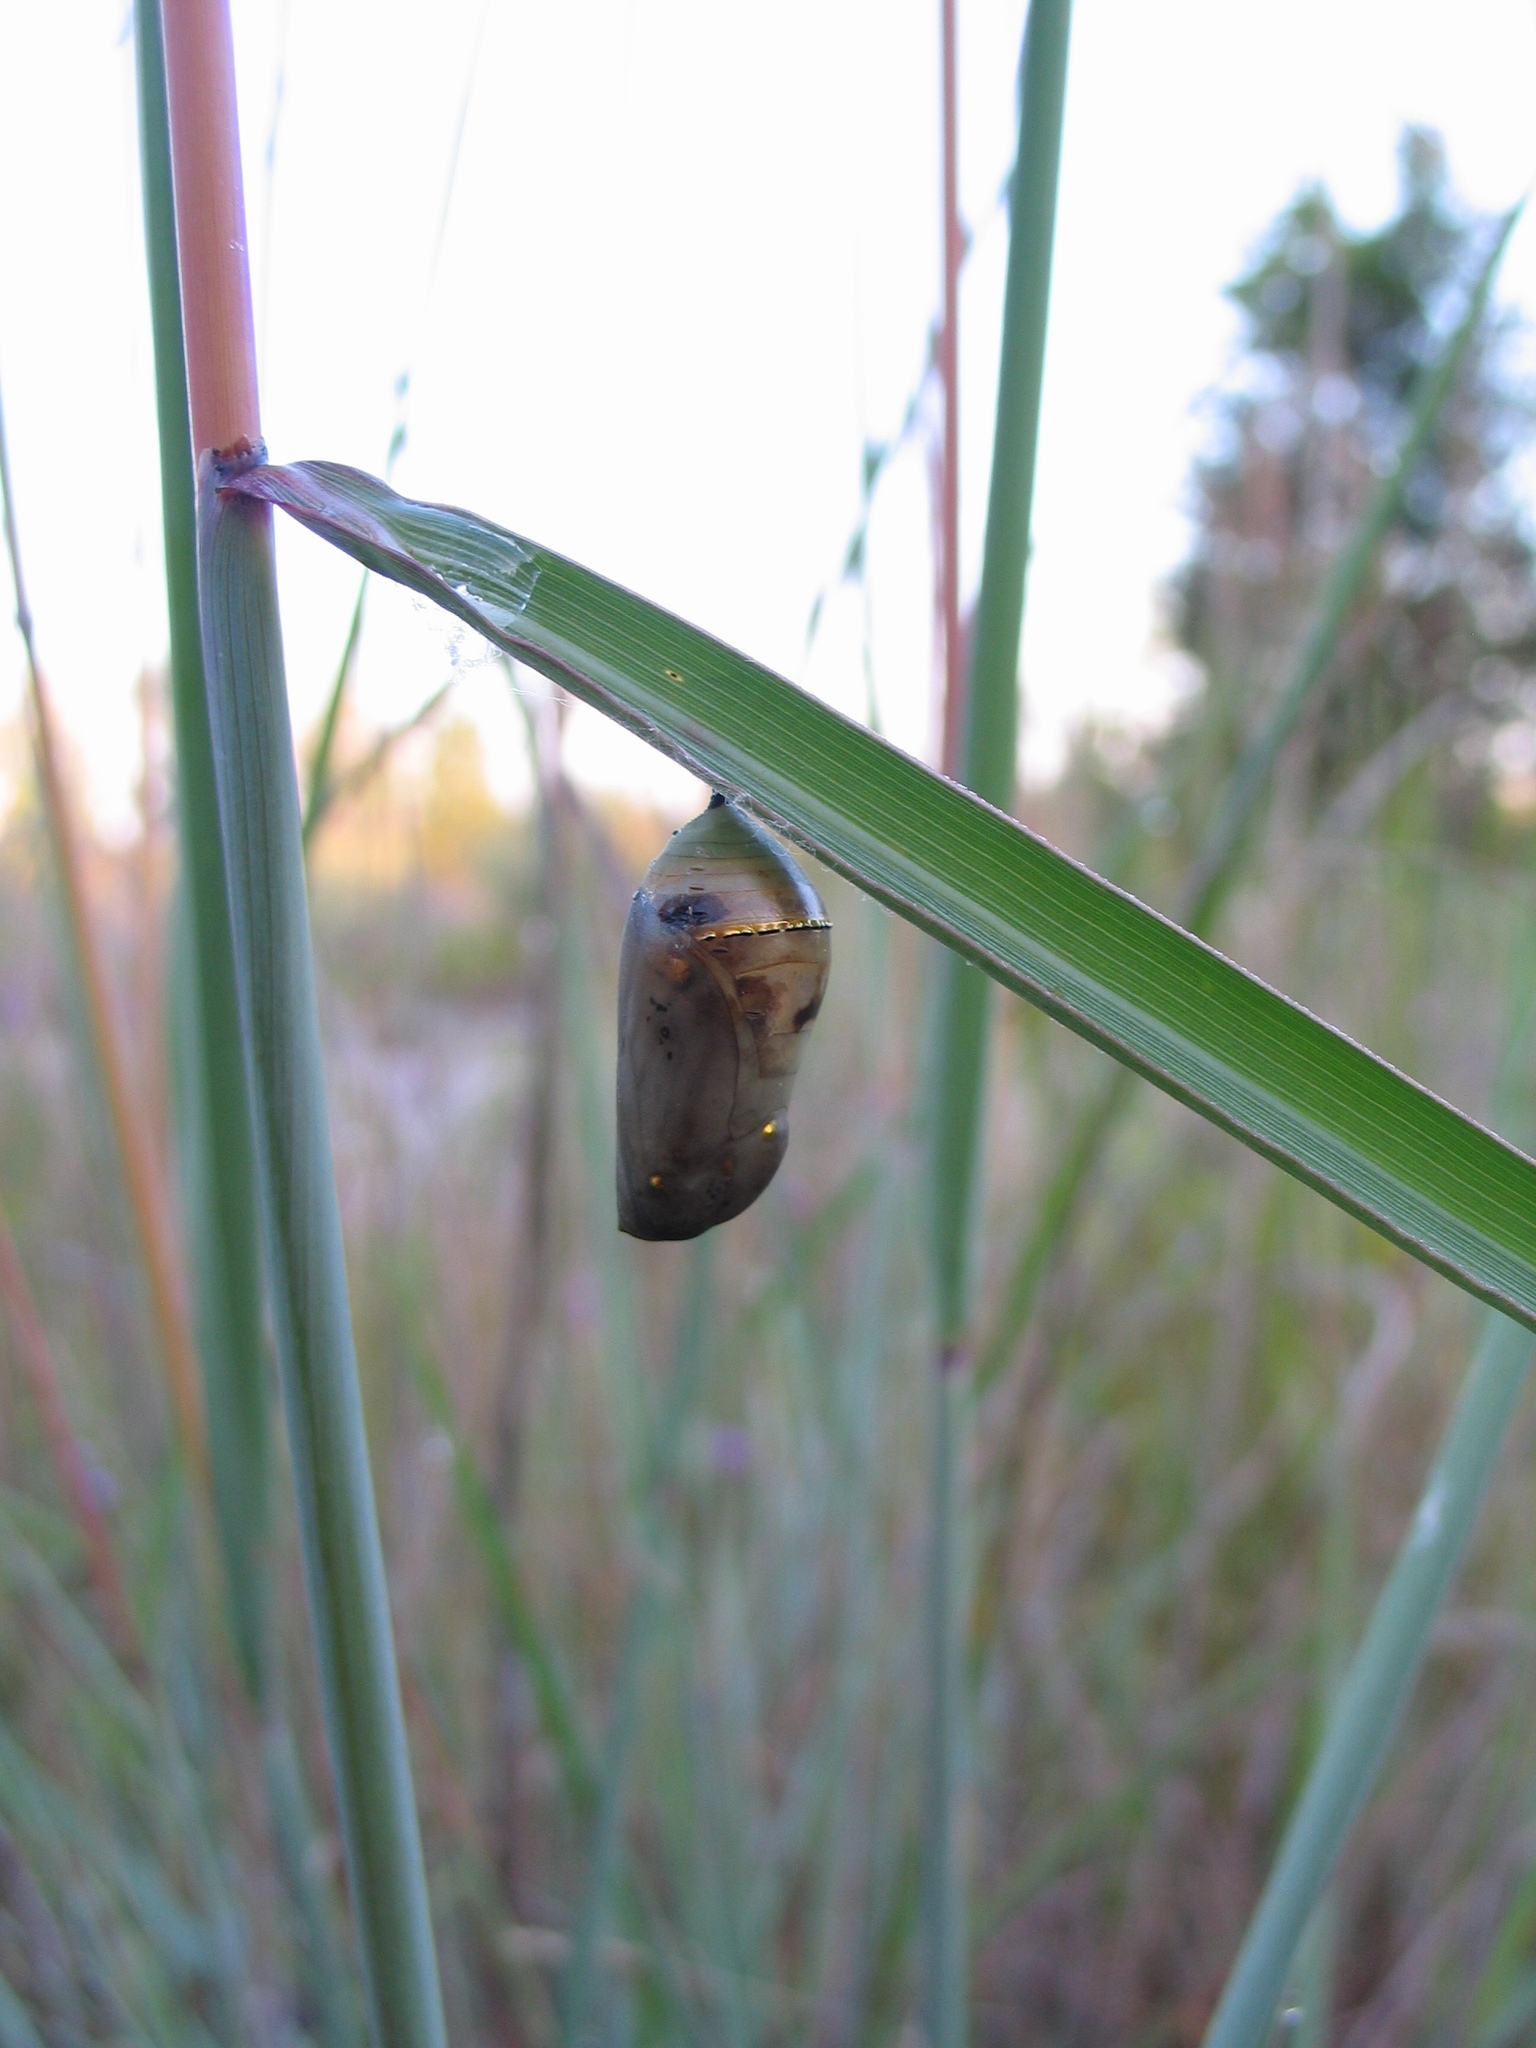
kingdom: Animalia
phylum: Arthropoda
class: Insecta
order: Lepidoptera
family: Nymphalidae
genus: Danaus
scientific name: Danaus plexippus
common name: Monarch
